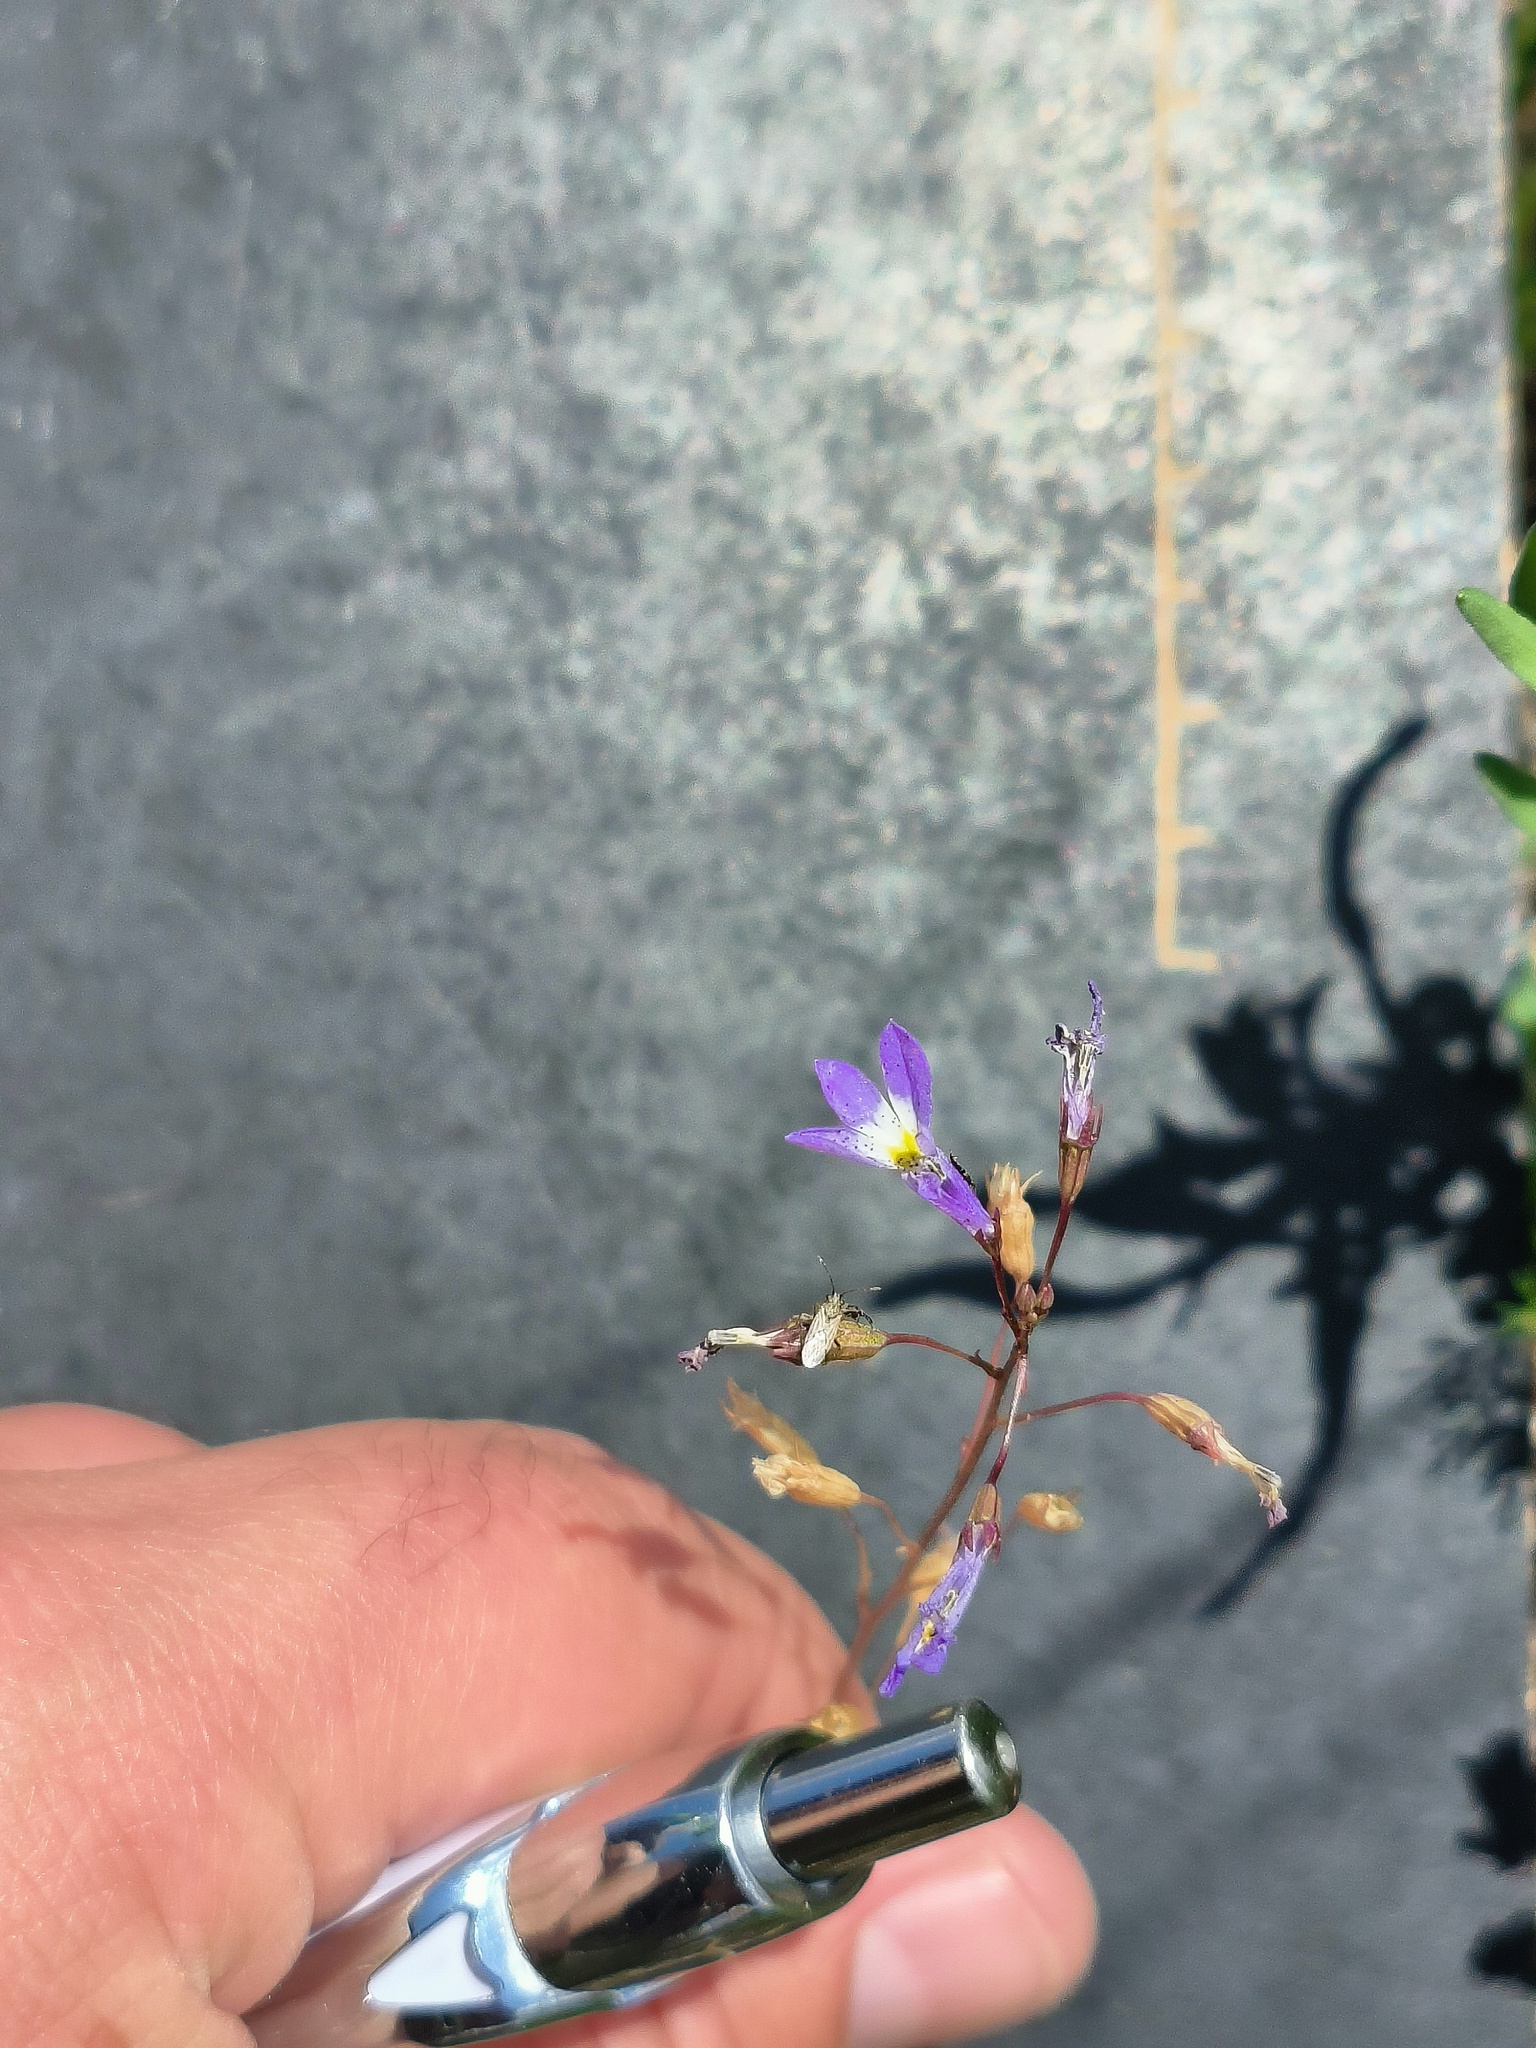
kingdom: Plantae
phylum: Tracheophyta
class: Magnoliopsida
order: Asterales
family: Campanulaceae
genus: Lobelia
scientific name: Lobelia erinus
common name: Edging lobelia
